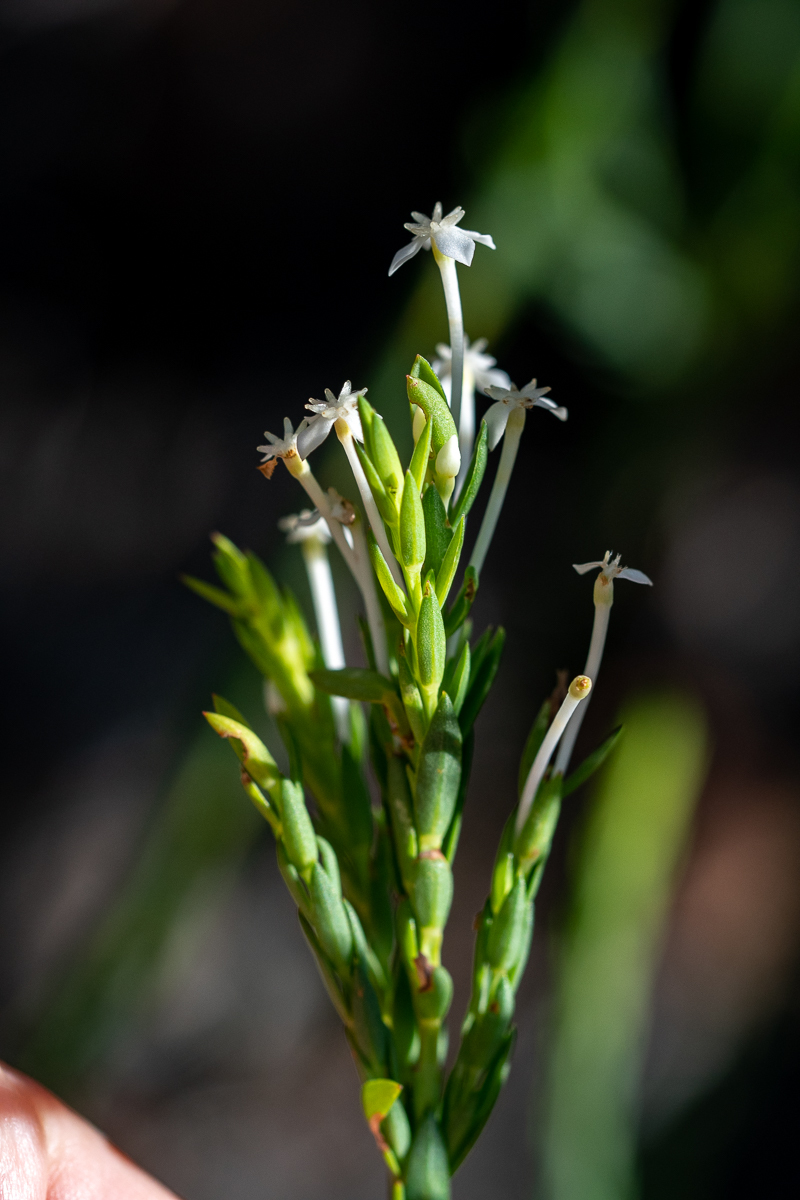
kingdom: Plantae
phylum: Tracheophyta
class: Magnoliopsida
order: Malvales
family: Thymelaeaceae
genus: Struthiola
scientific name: Struthiola myrsinites
